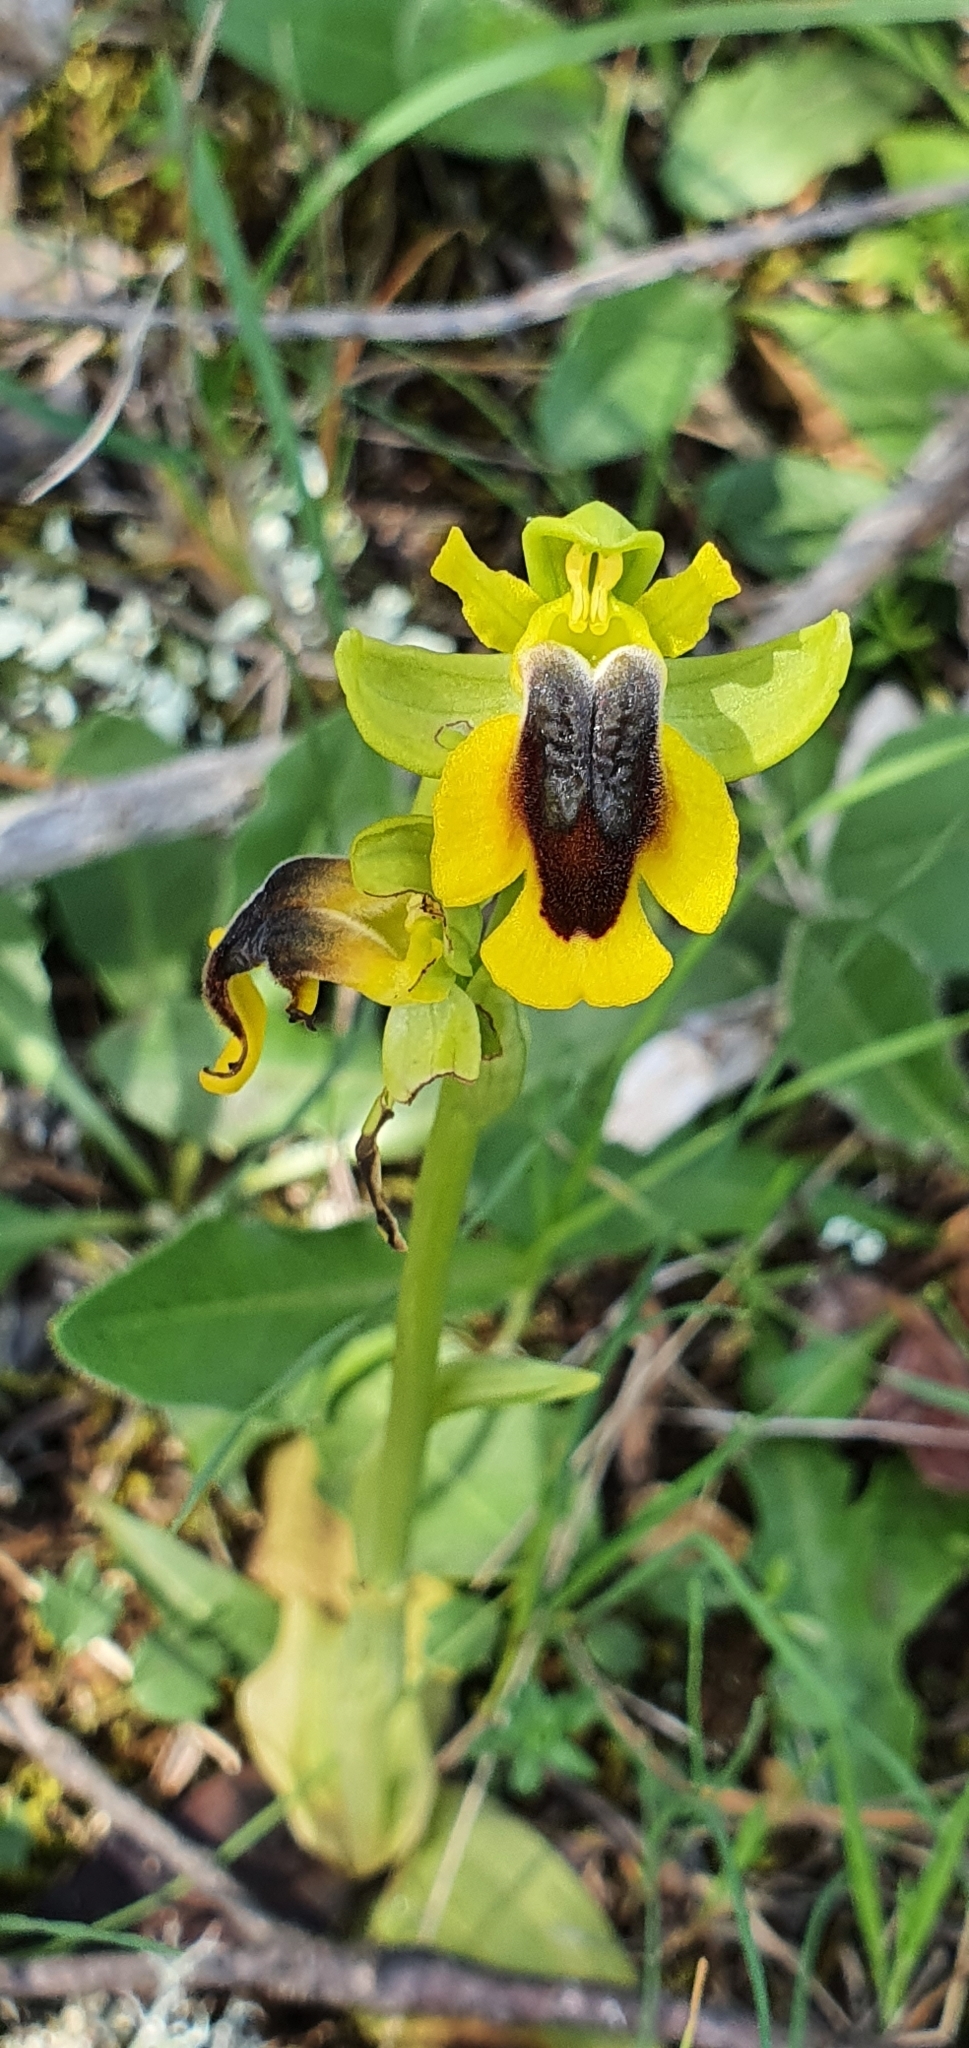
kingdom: Plantae
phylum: Tracheophyta
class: Liliopsida
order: Asparagales
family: Orchidaceae
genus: Ophrys
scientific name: Ophrys lutea
